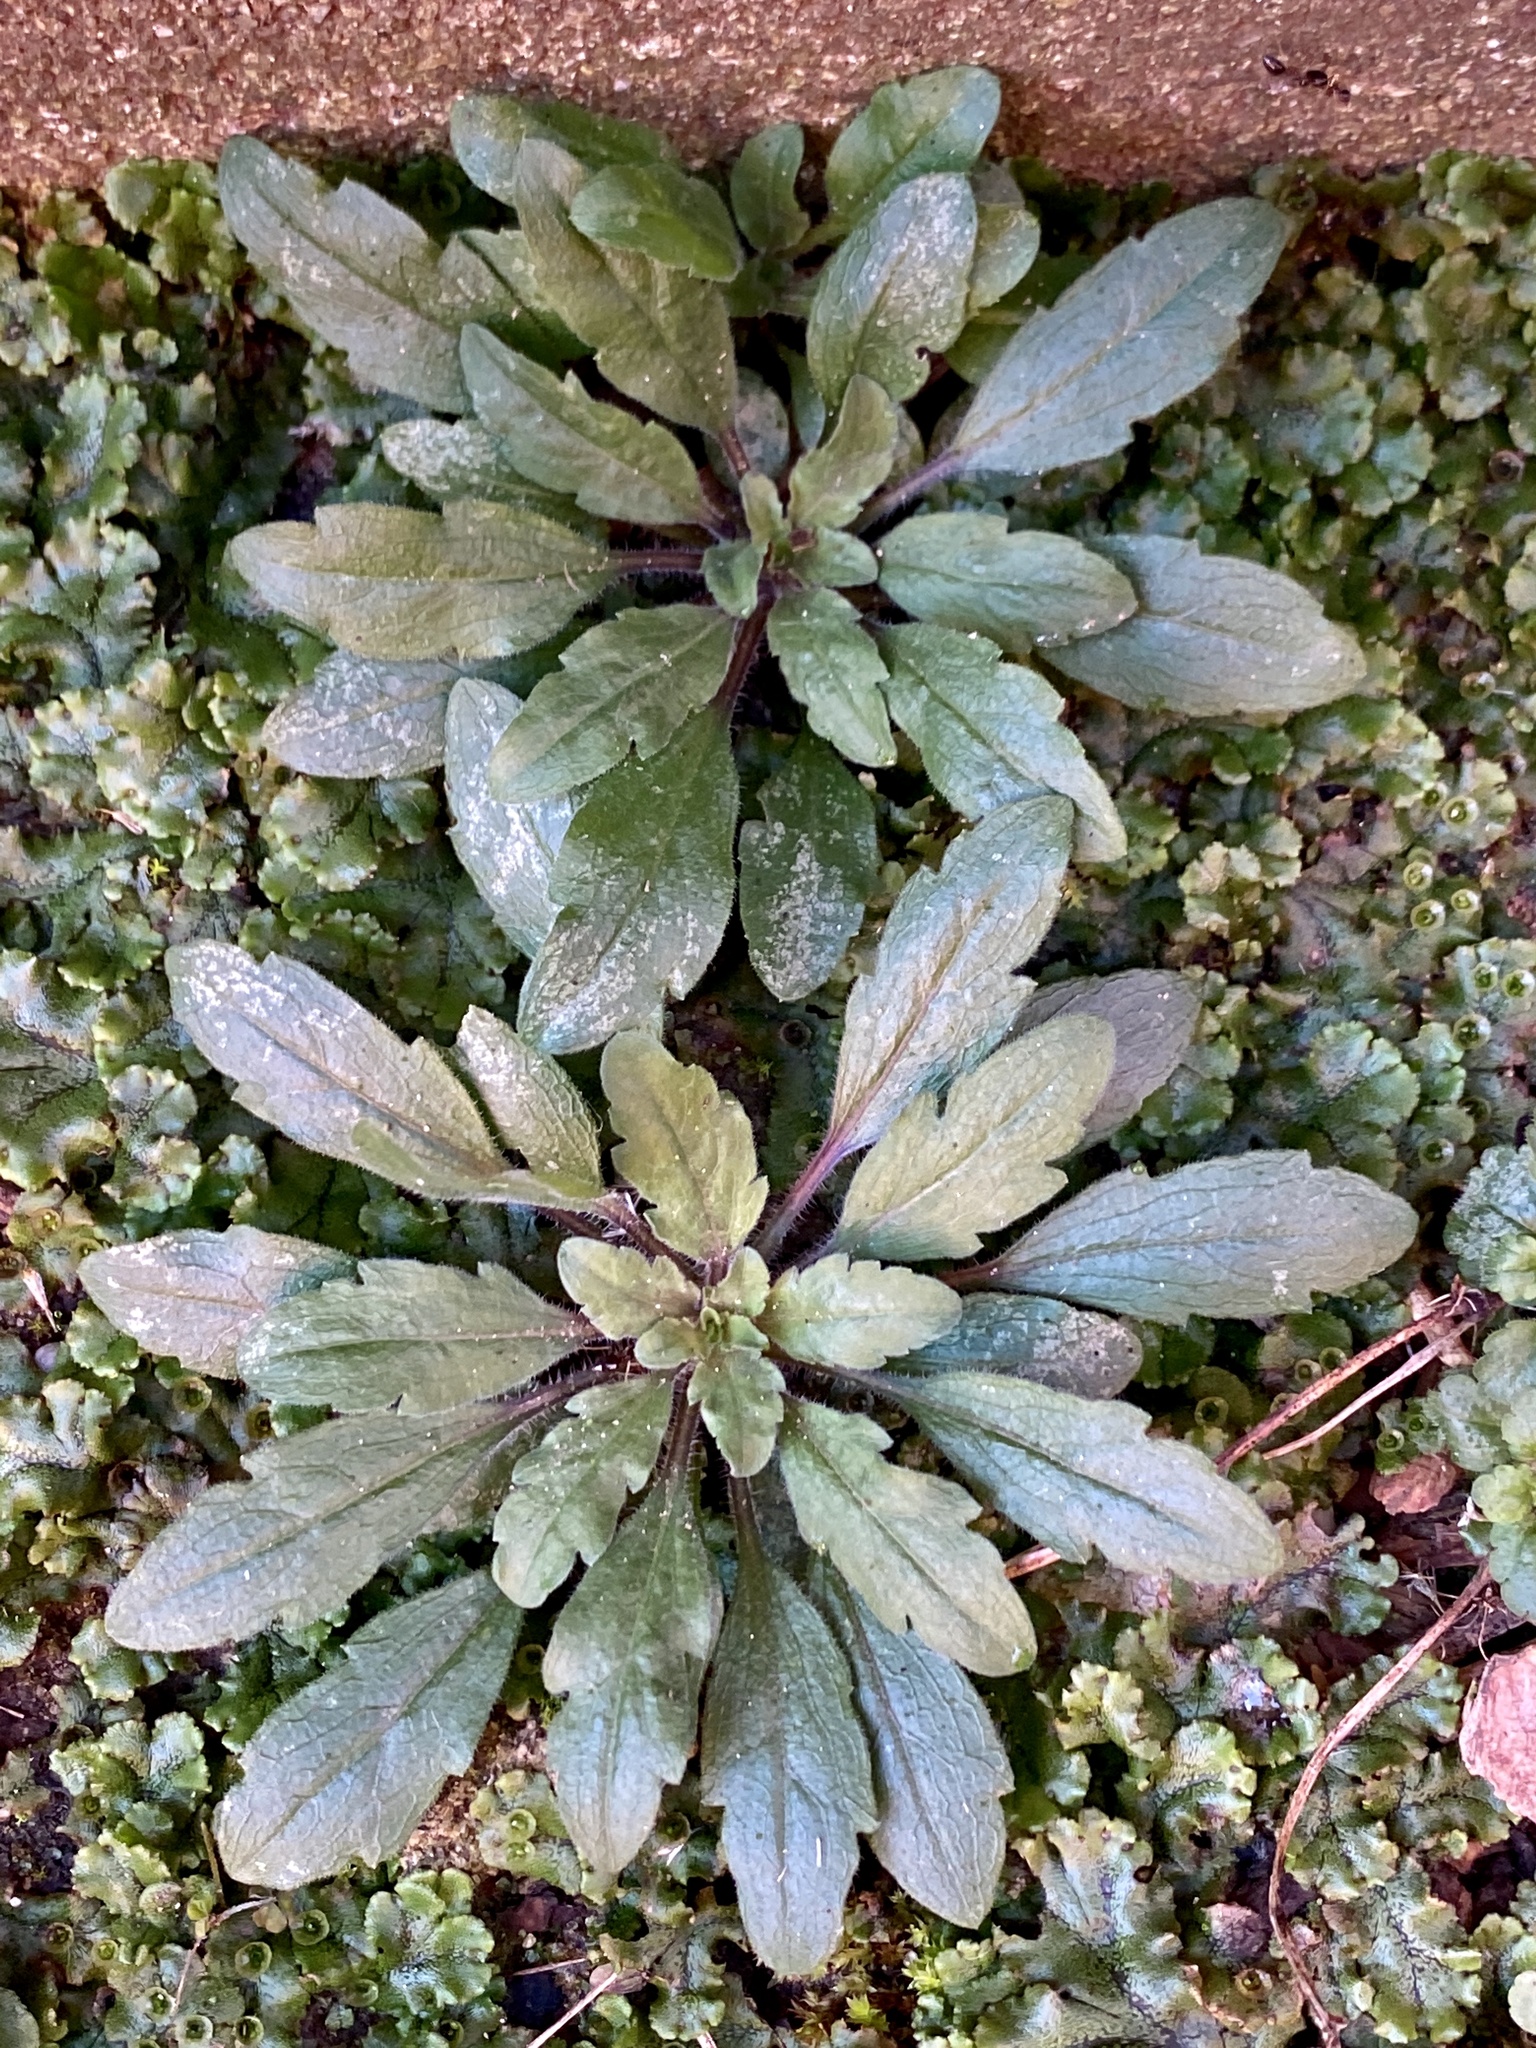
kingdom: Plantae
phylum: Tracheophyta
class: Magnoliopsida
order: Asterales
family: Asteraceae
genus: Erigeron
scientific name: Erigeron canadensis
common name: Canadian fleabane
